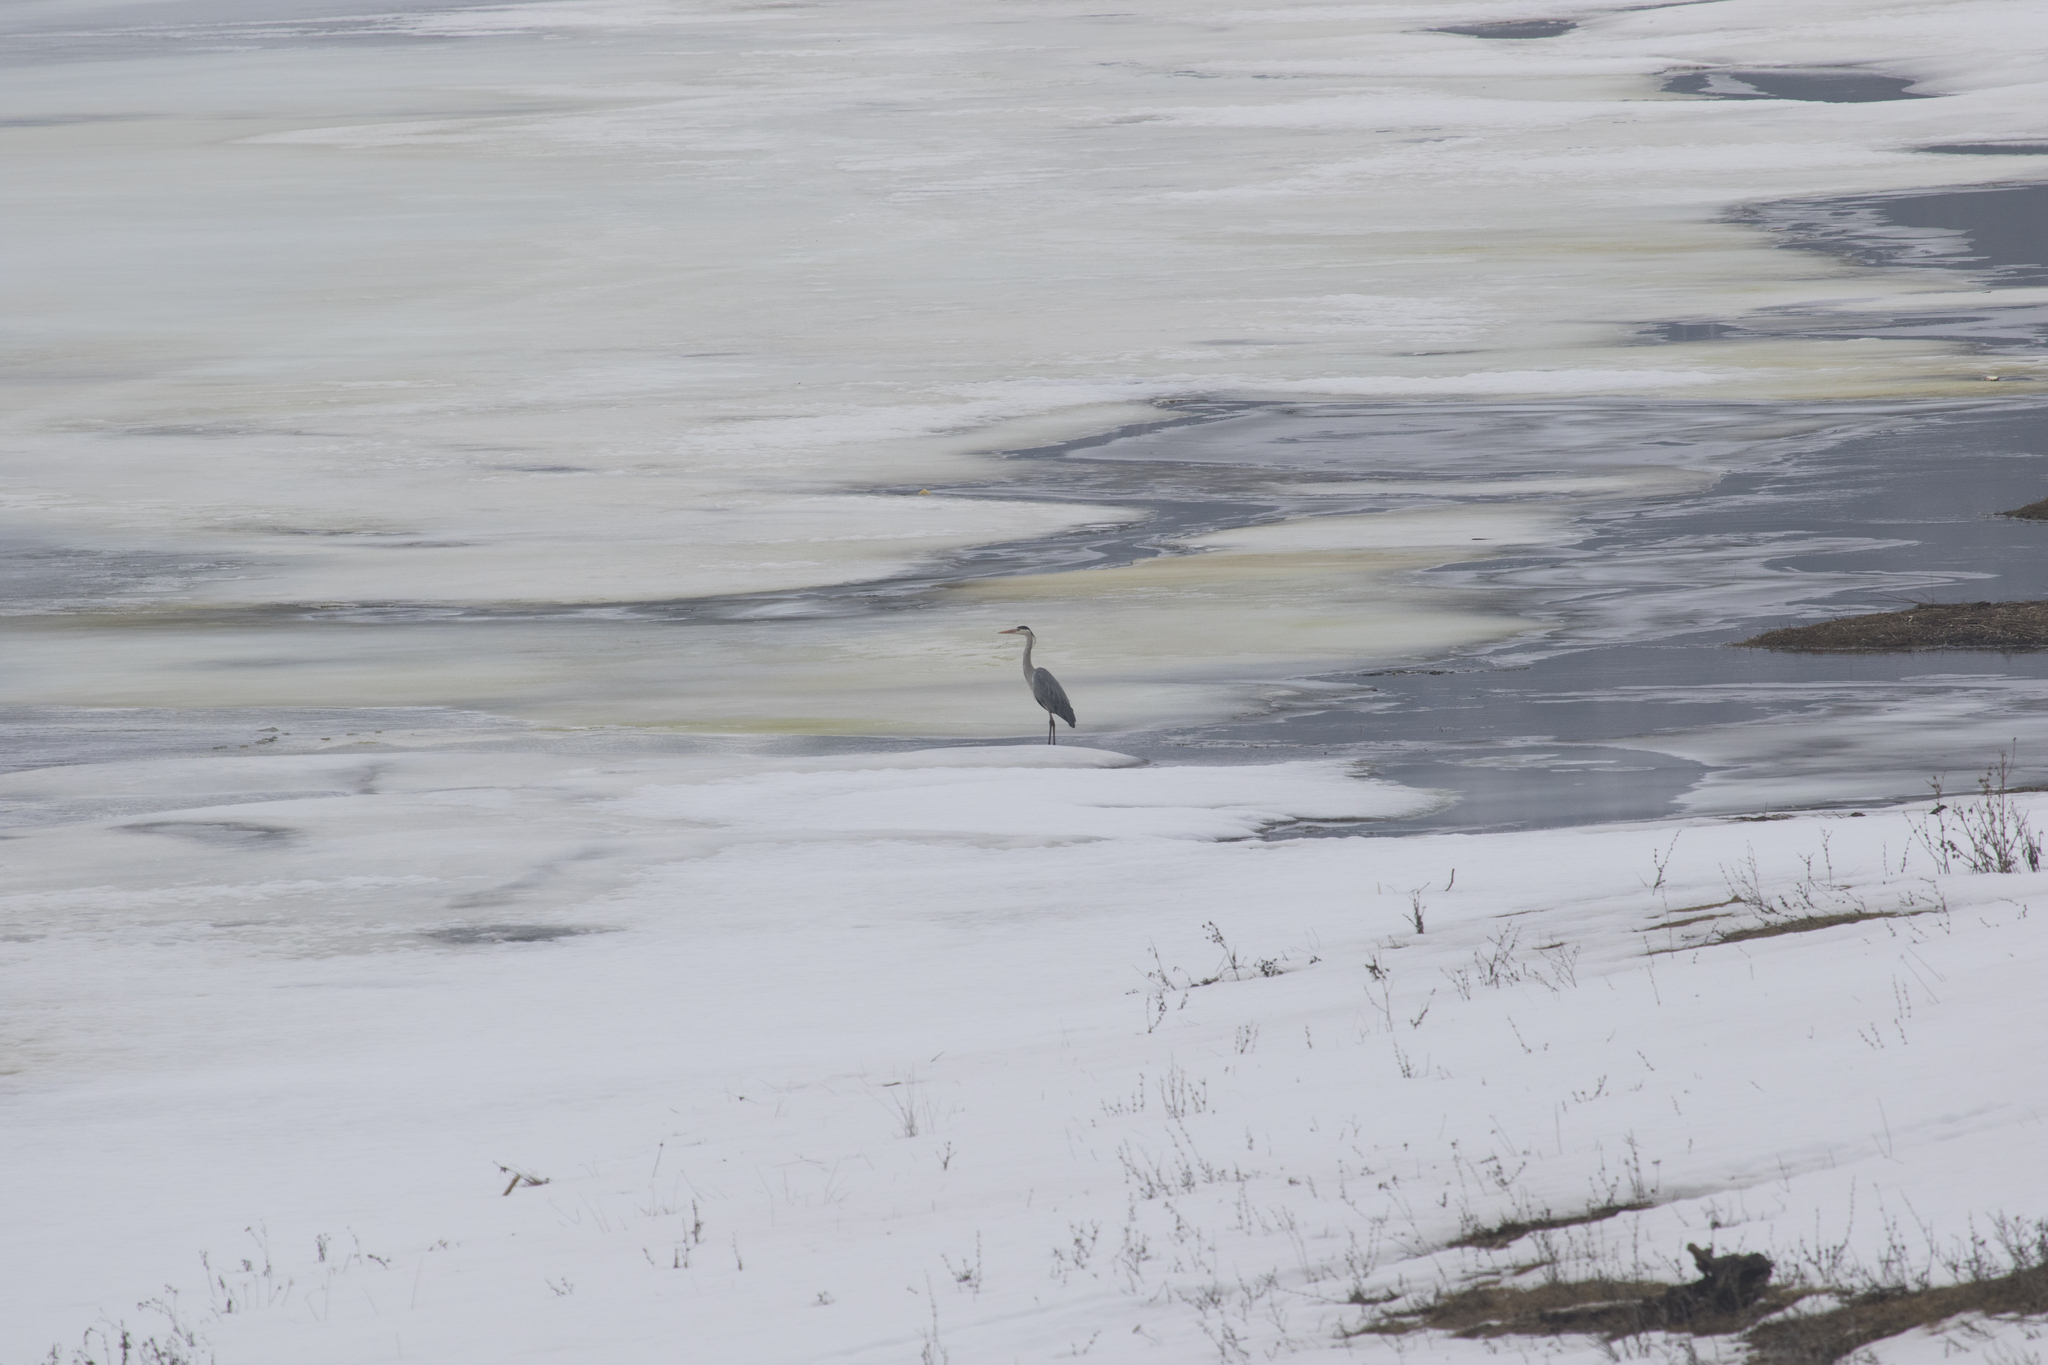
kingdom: Animalia
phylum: Chordata
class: Aves
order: Pelecaniformes
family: Ardeidae
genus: Ardea
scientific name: Ardea cinerea
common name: Grey heron
